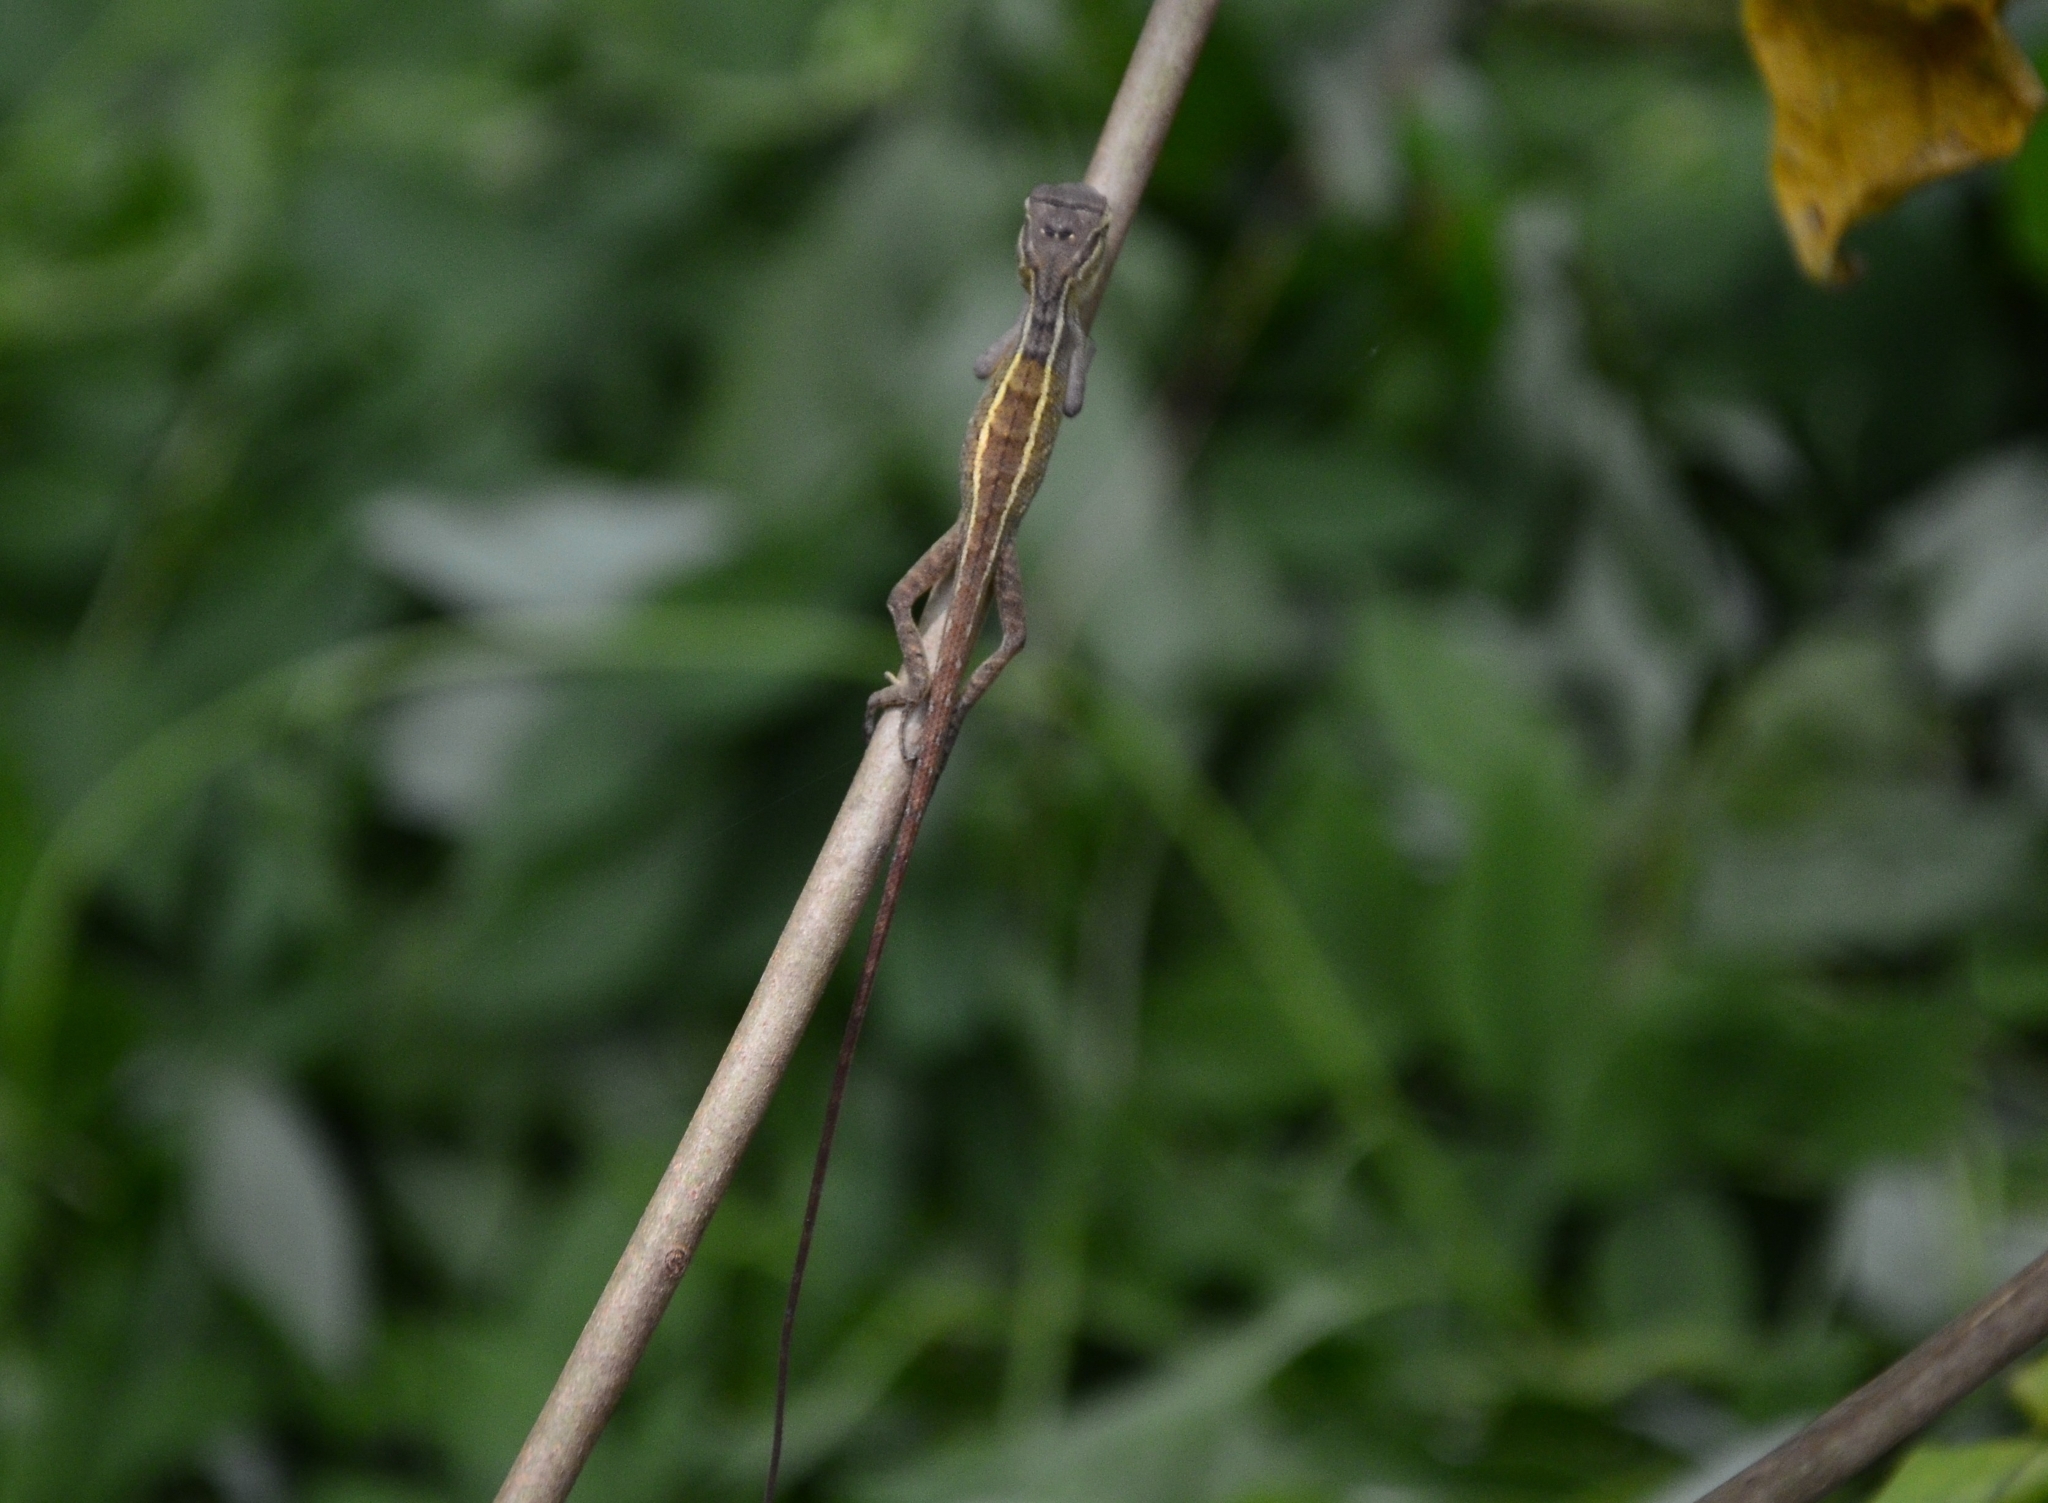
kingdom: Animalia
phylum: Chordata
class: Squamata
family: Agamidae
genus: Calotes
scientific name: Calotes versicolor
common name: Oriental garden lizard
